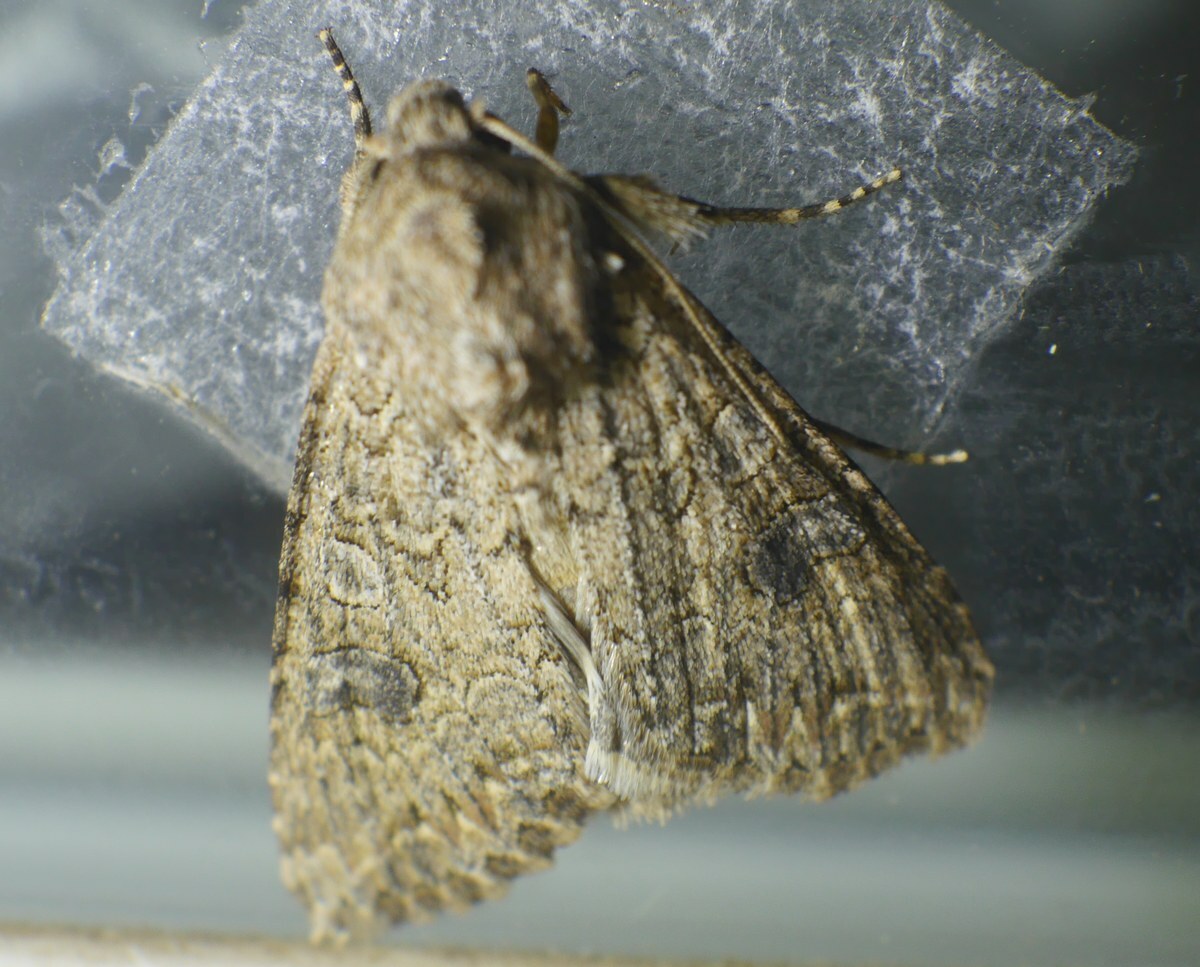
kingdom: Animalia
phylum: Arthropoda
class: Insecta
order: Lepidoptera
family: Noctuidae
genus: Anarta
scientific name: Anarta trifolii
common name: Clover cutworm moth
